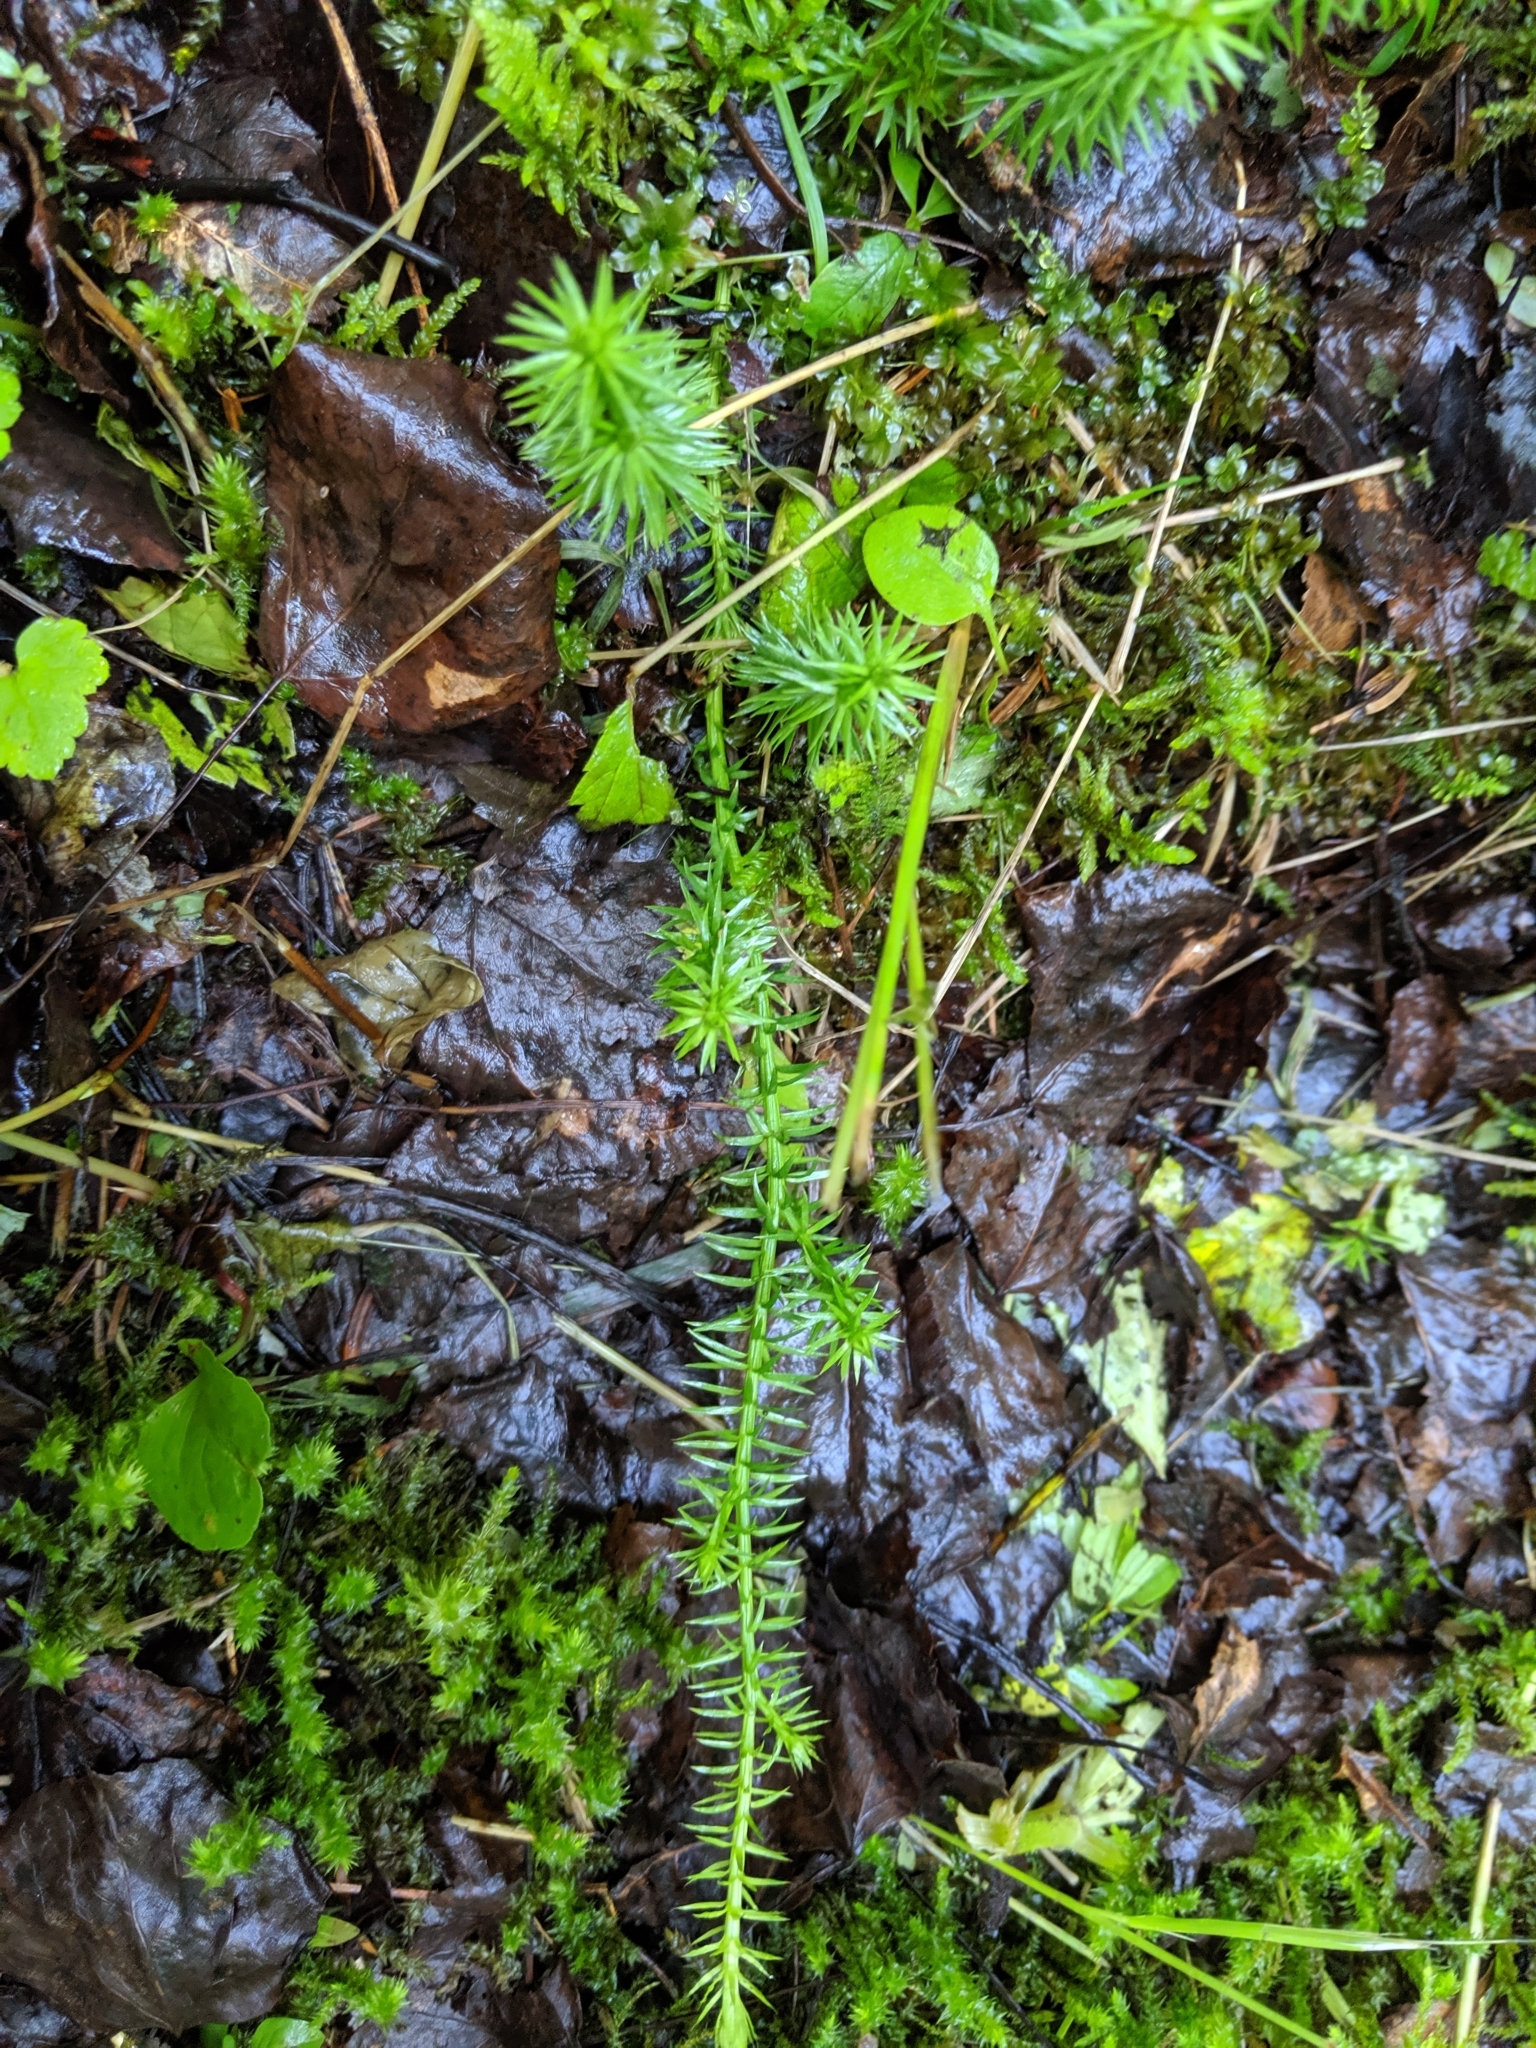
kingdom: Plantae
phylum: Tracheophyta
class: Lycopodiopsida
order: Lycopodiales
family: Lycopodiaceae
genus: Spinulum
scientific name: Spinulum annotinum
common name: Interrupted club-moss
